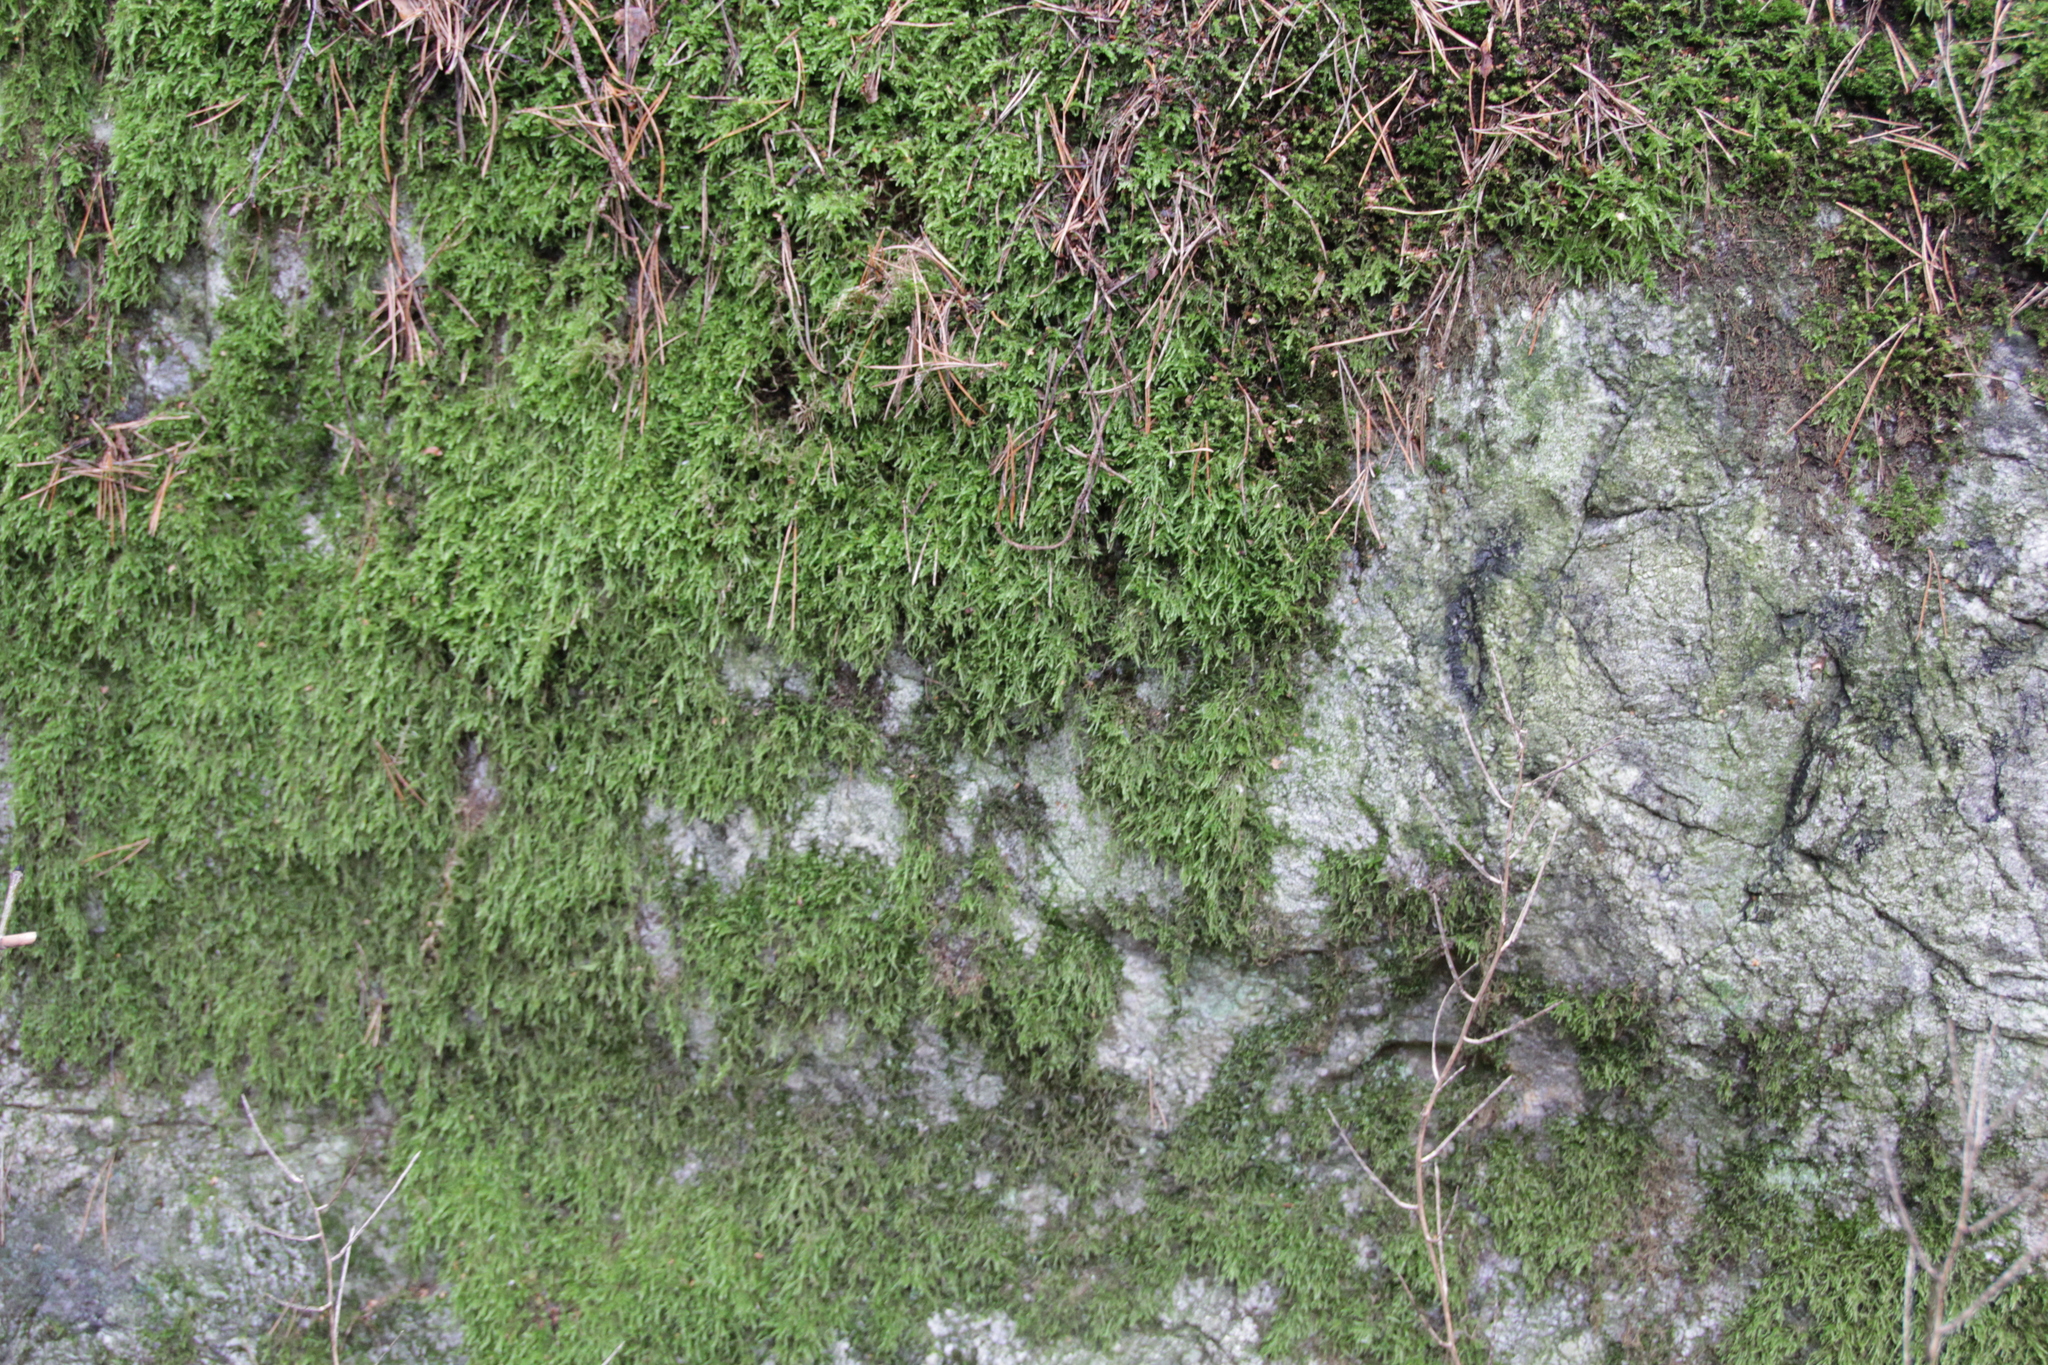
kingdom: Plantae
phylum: Bryophyta
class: Bryopsida
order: Hypnales
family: Hypnaceae
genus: Hypnum
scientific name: Hypnum cupressiforme
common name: Cypress-leaved plait-moss
